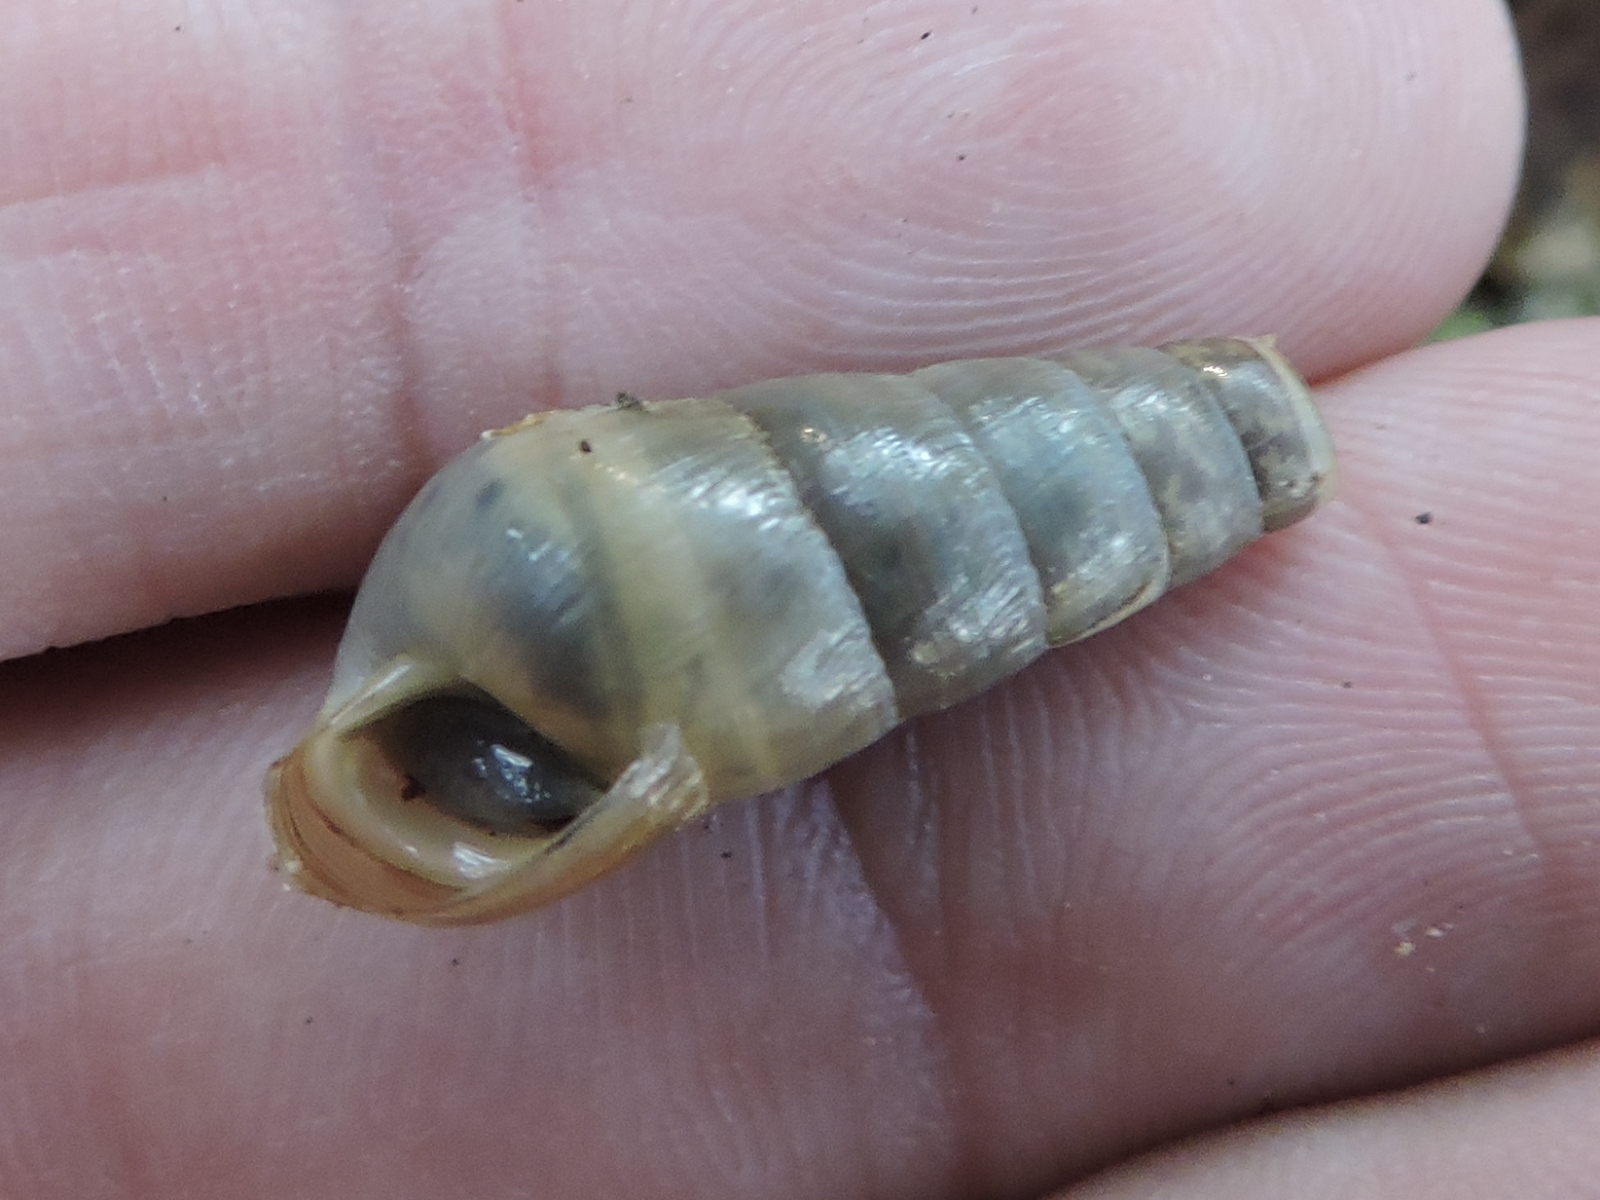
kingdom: Animalia
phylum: Mollusca
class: Gastropoda
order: Stylommatophora
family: Achatinidae
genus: Rumina
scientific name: Rumina decollata
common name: Decollate snail
